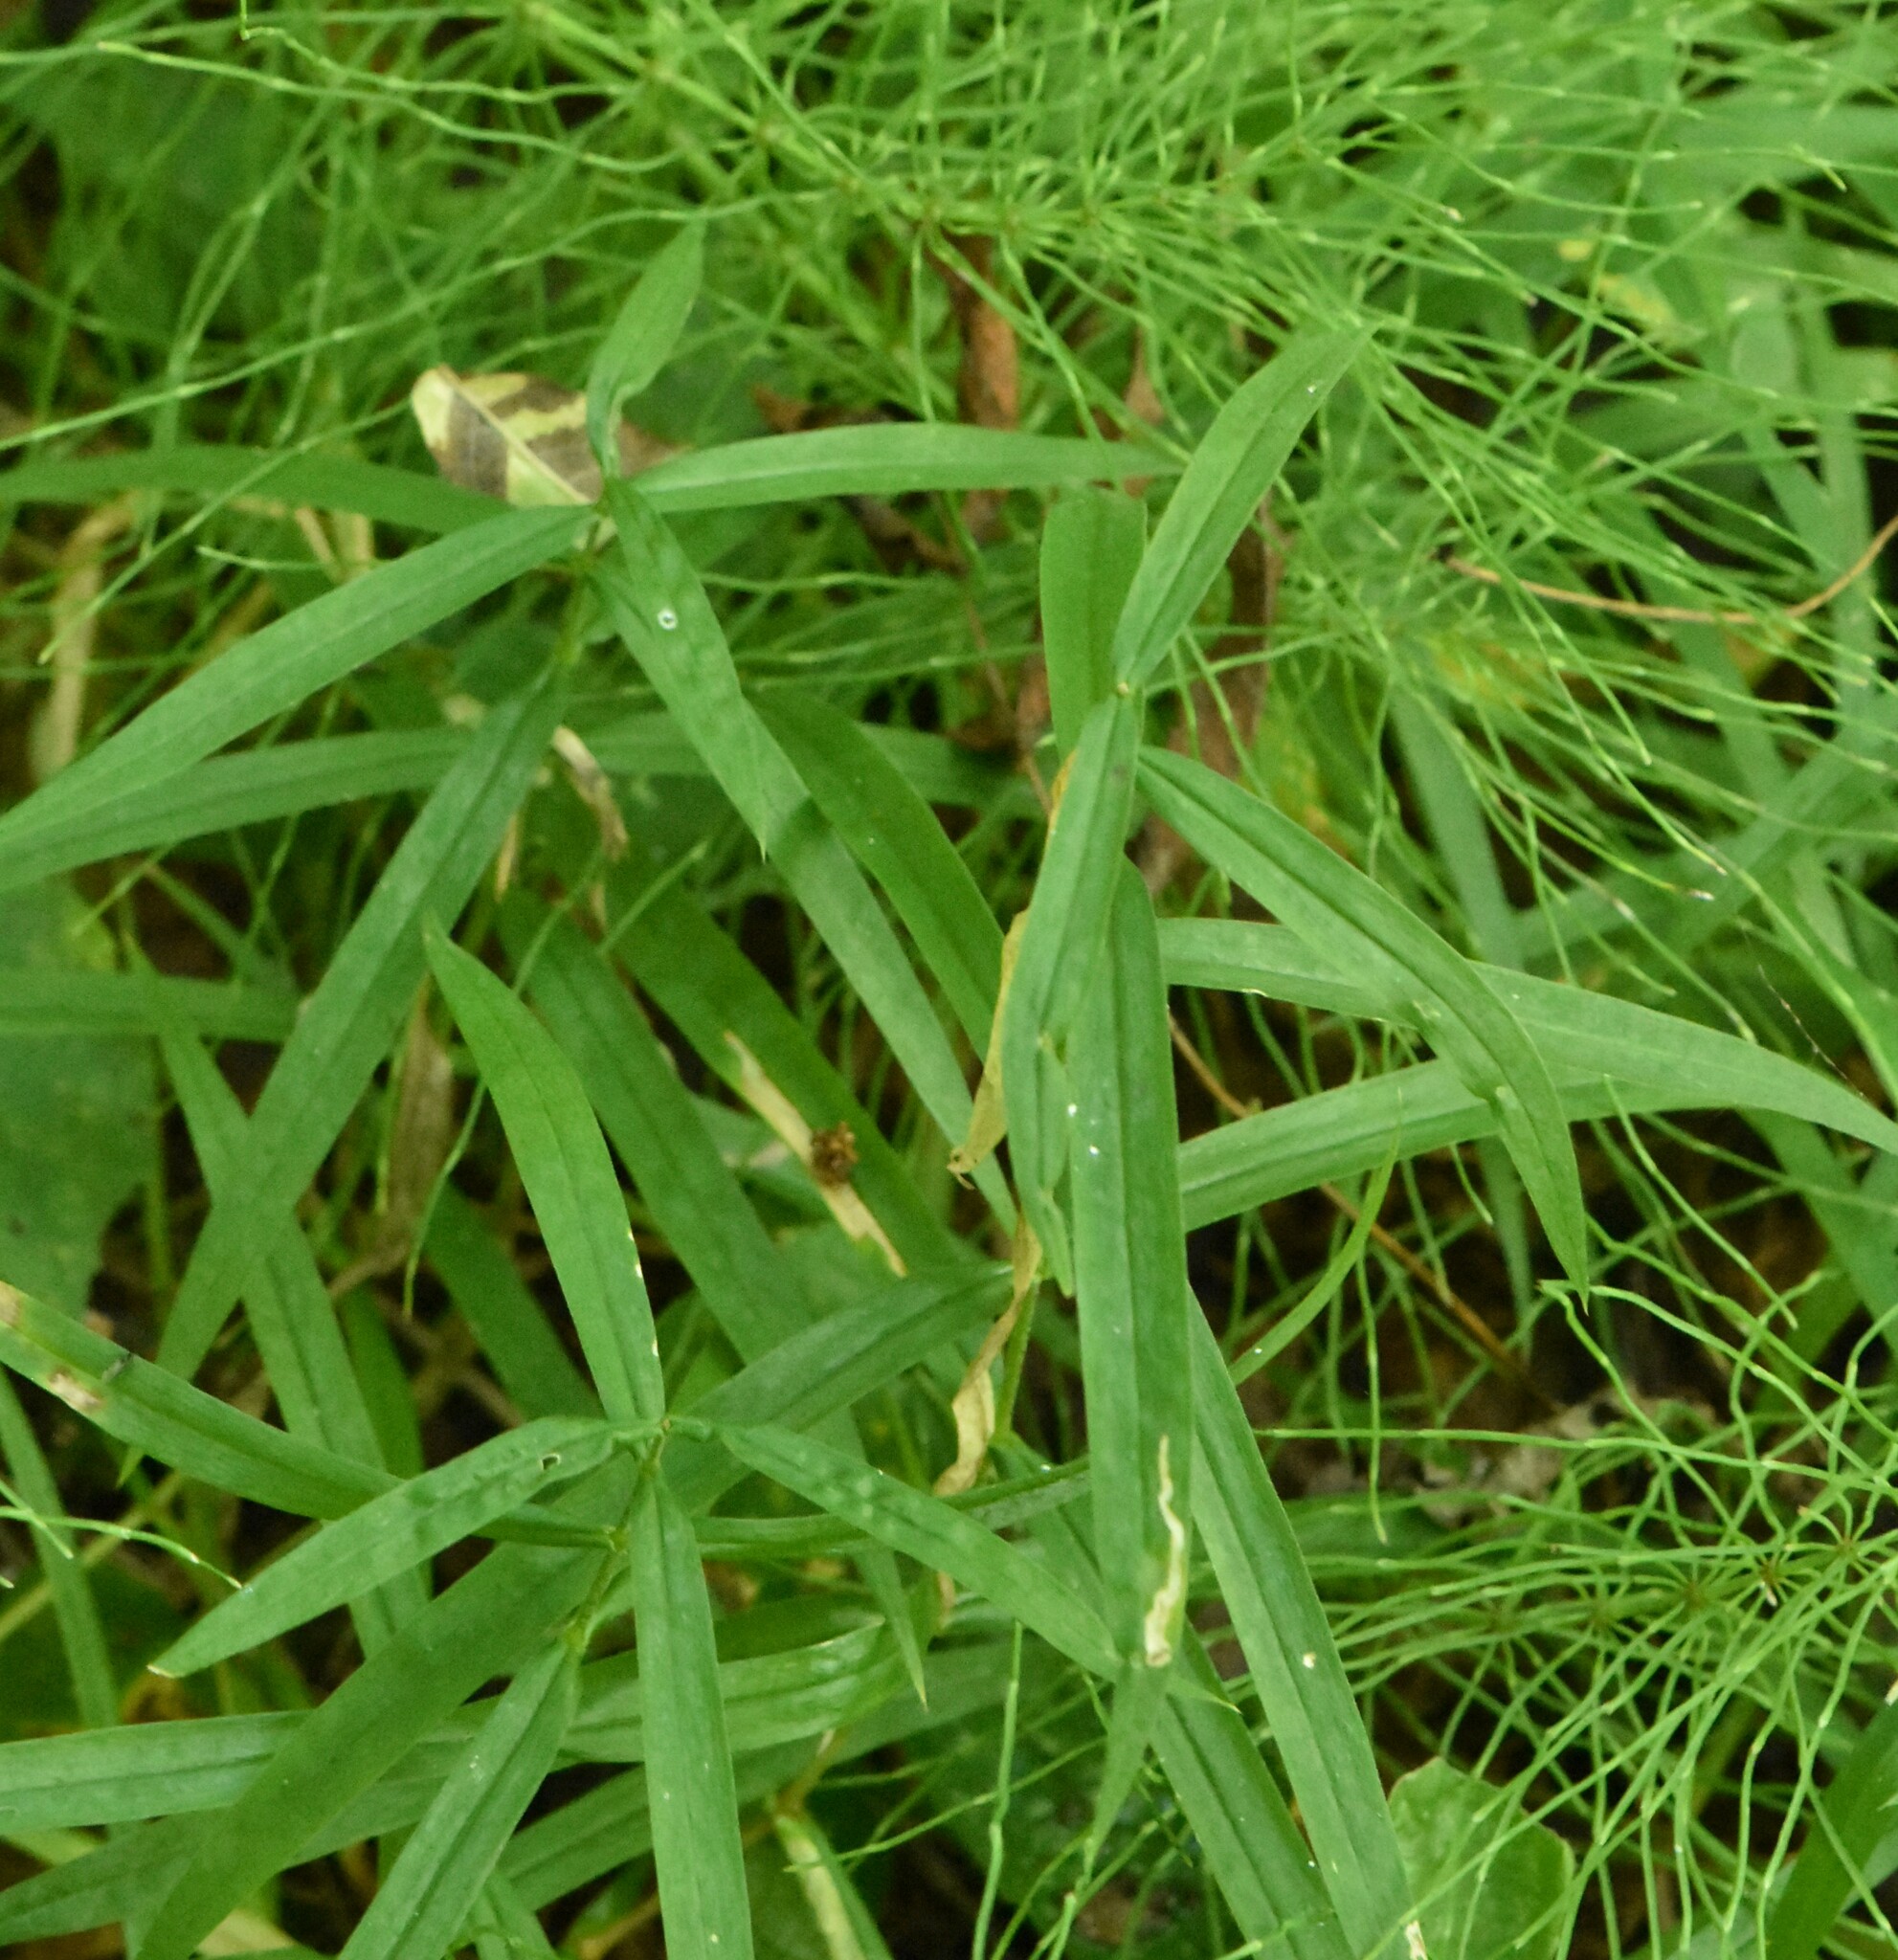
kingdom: Plantae
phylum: Tracheophyta
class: Magnoliopsida
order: Caryophyllales
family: Caryophyllaceae
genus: Rabelera
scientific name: Rabelera holostea
